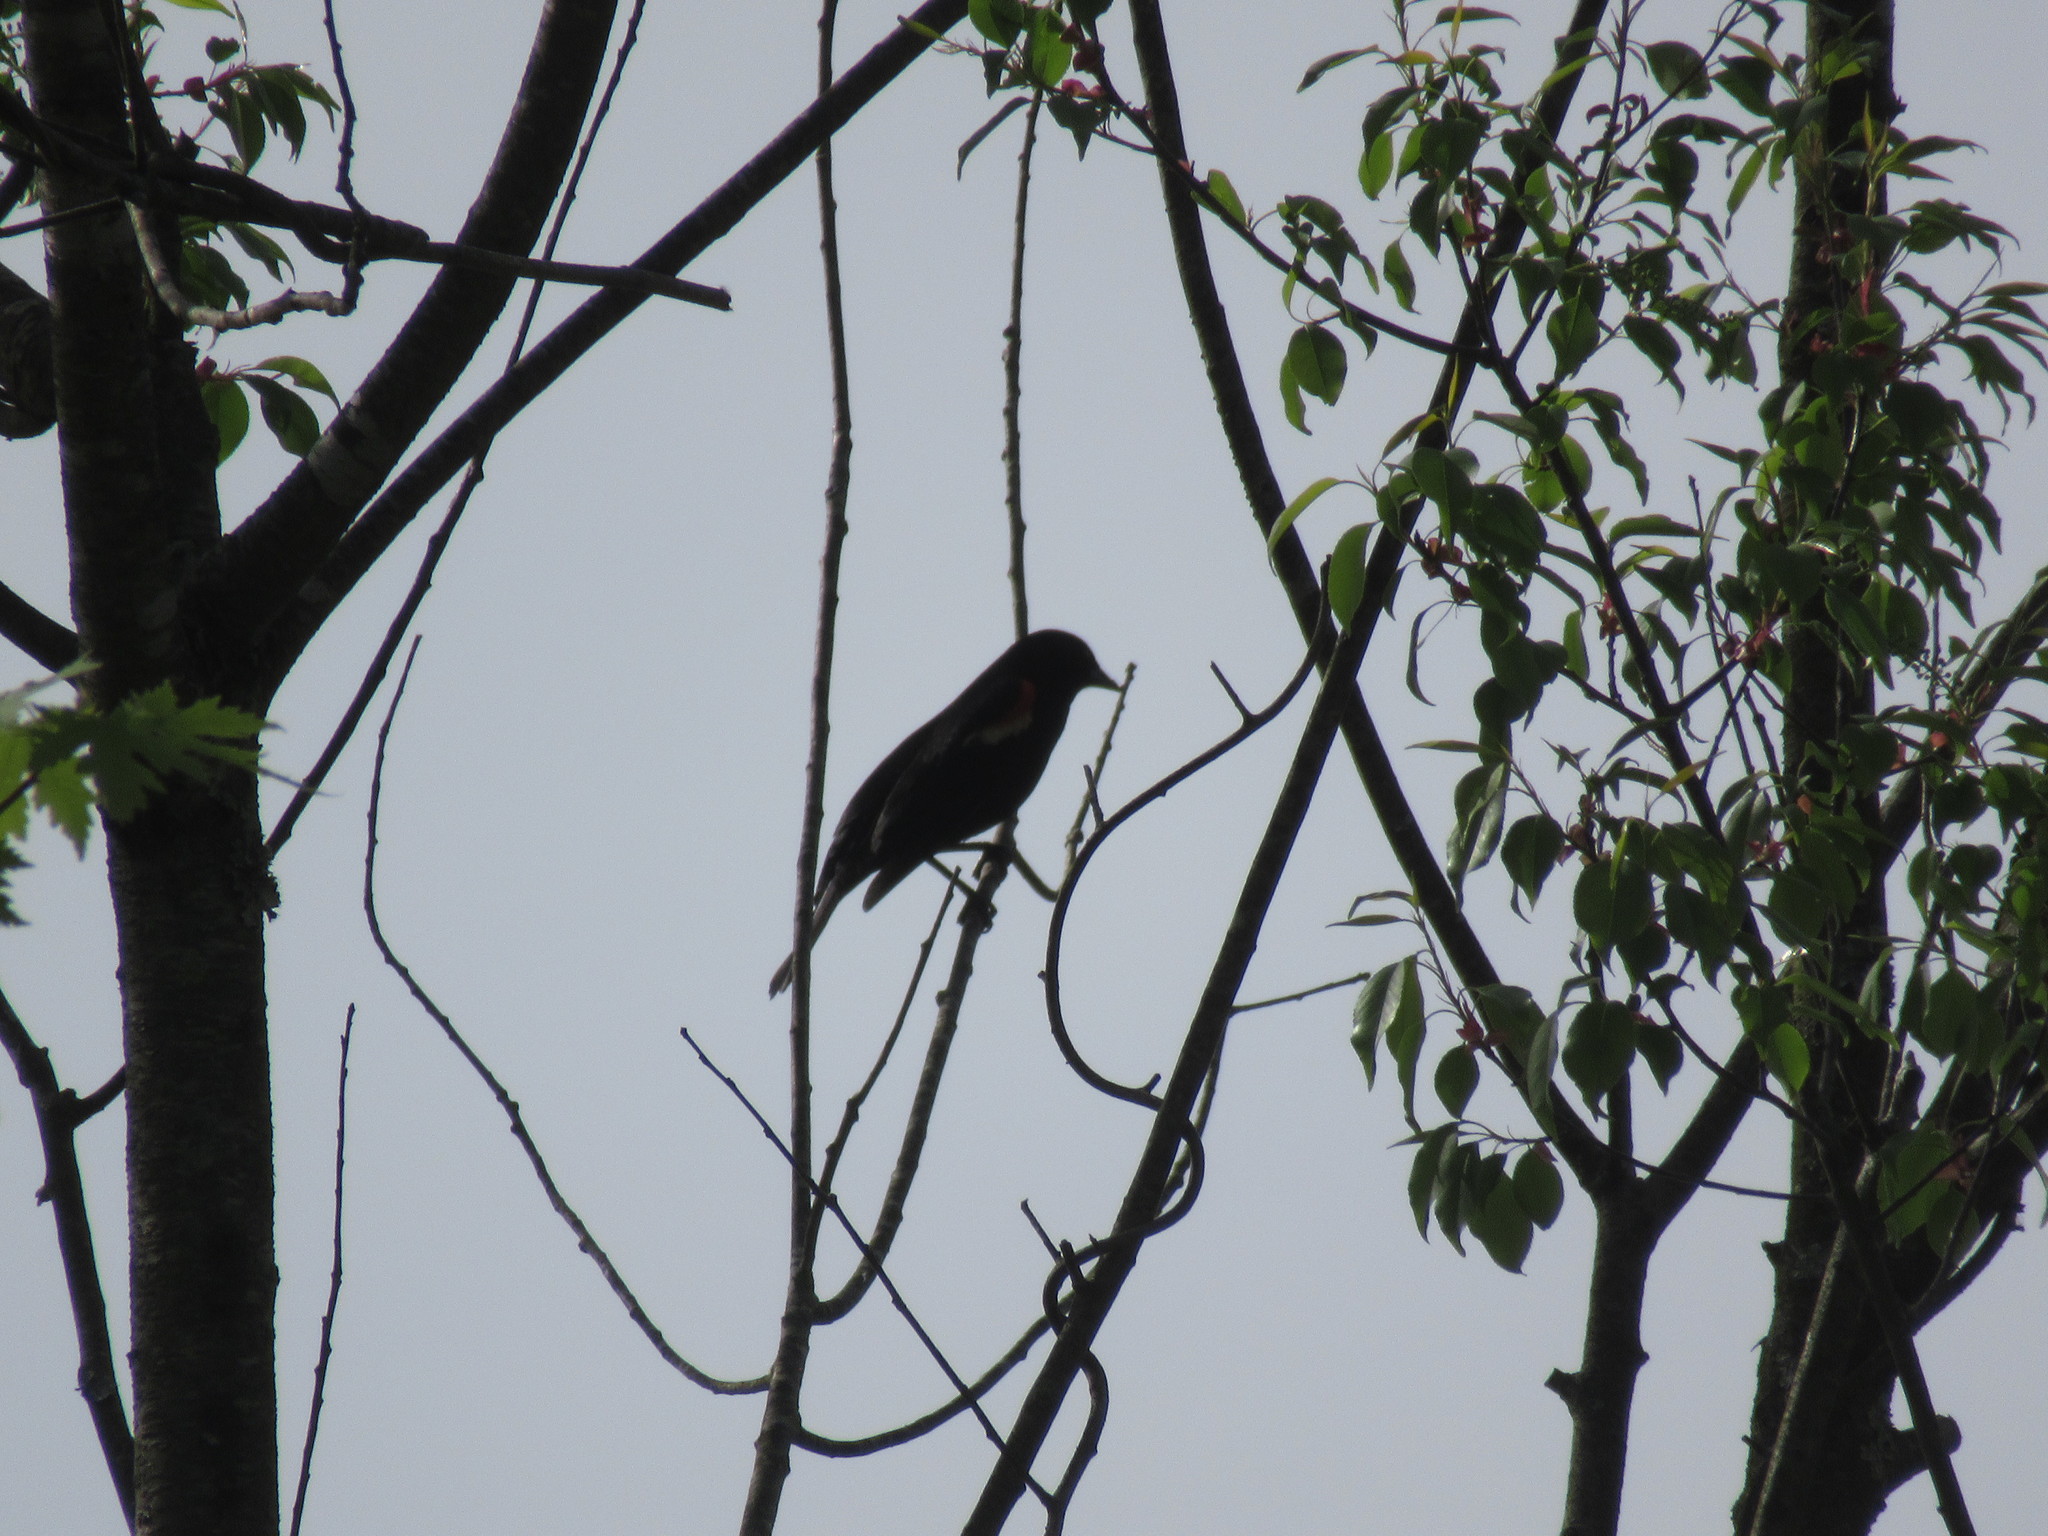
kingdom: Animalia
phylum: Chordata
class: Aves
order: Passeriformes
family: Icteridae
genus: Agelaius
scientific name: Agelaius phoeniceus
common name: Red-winged blackbird
